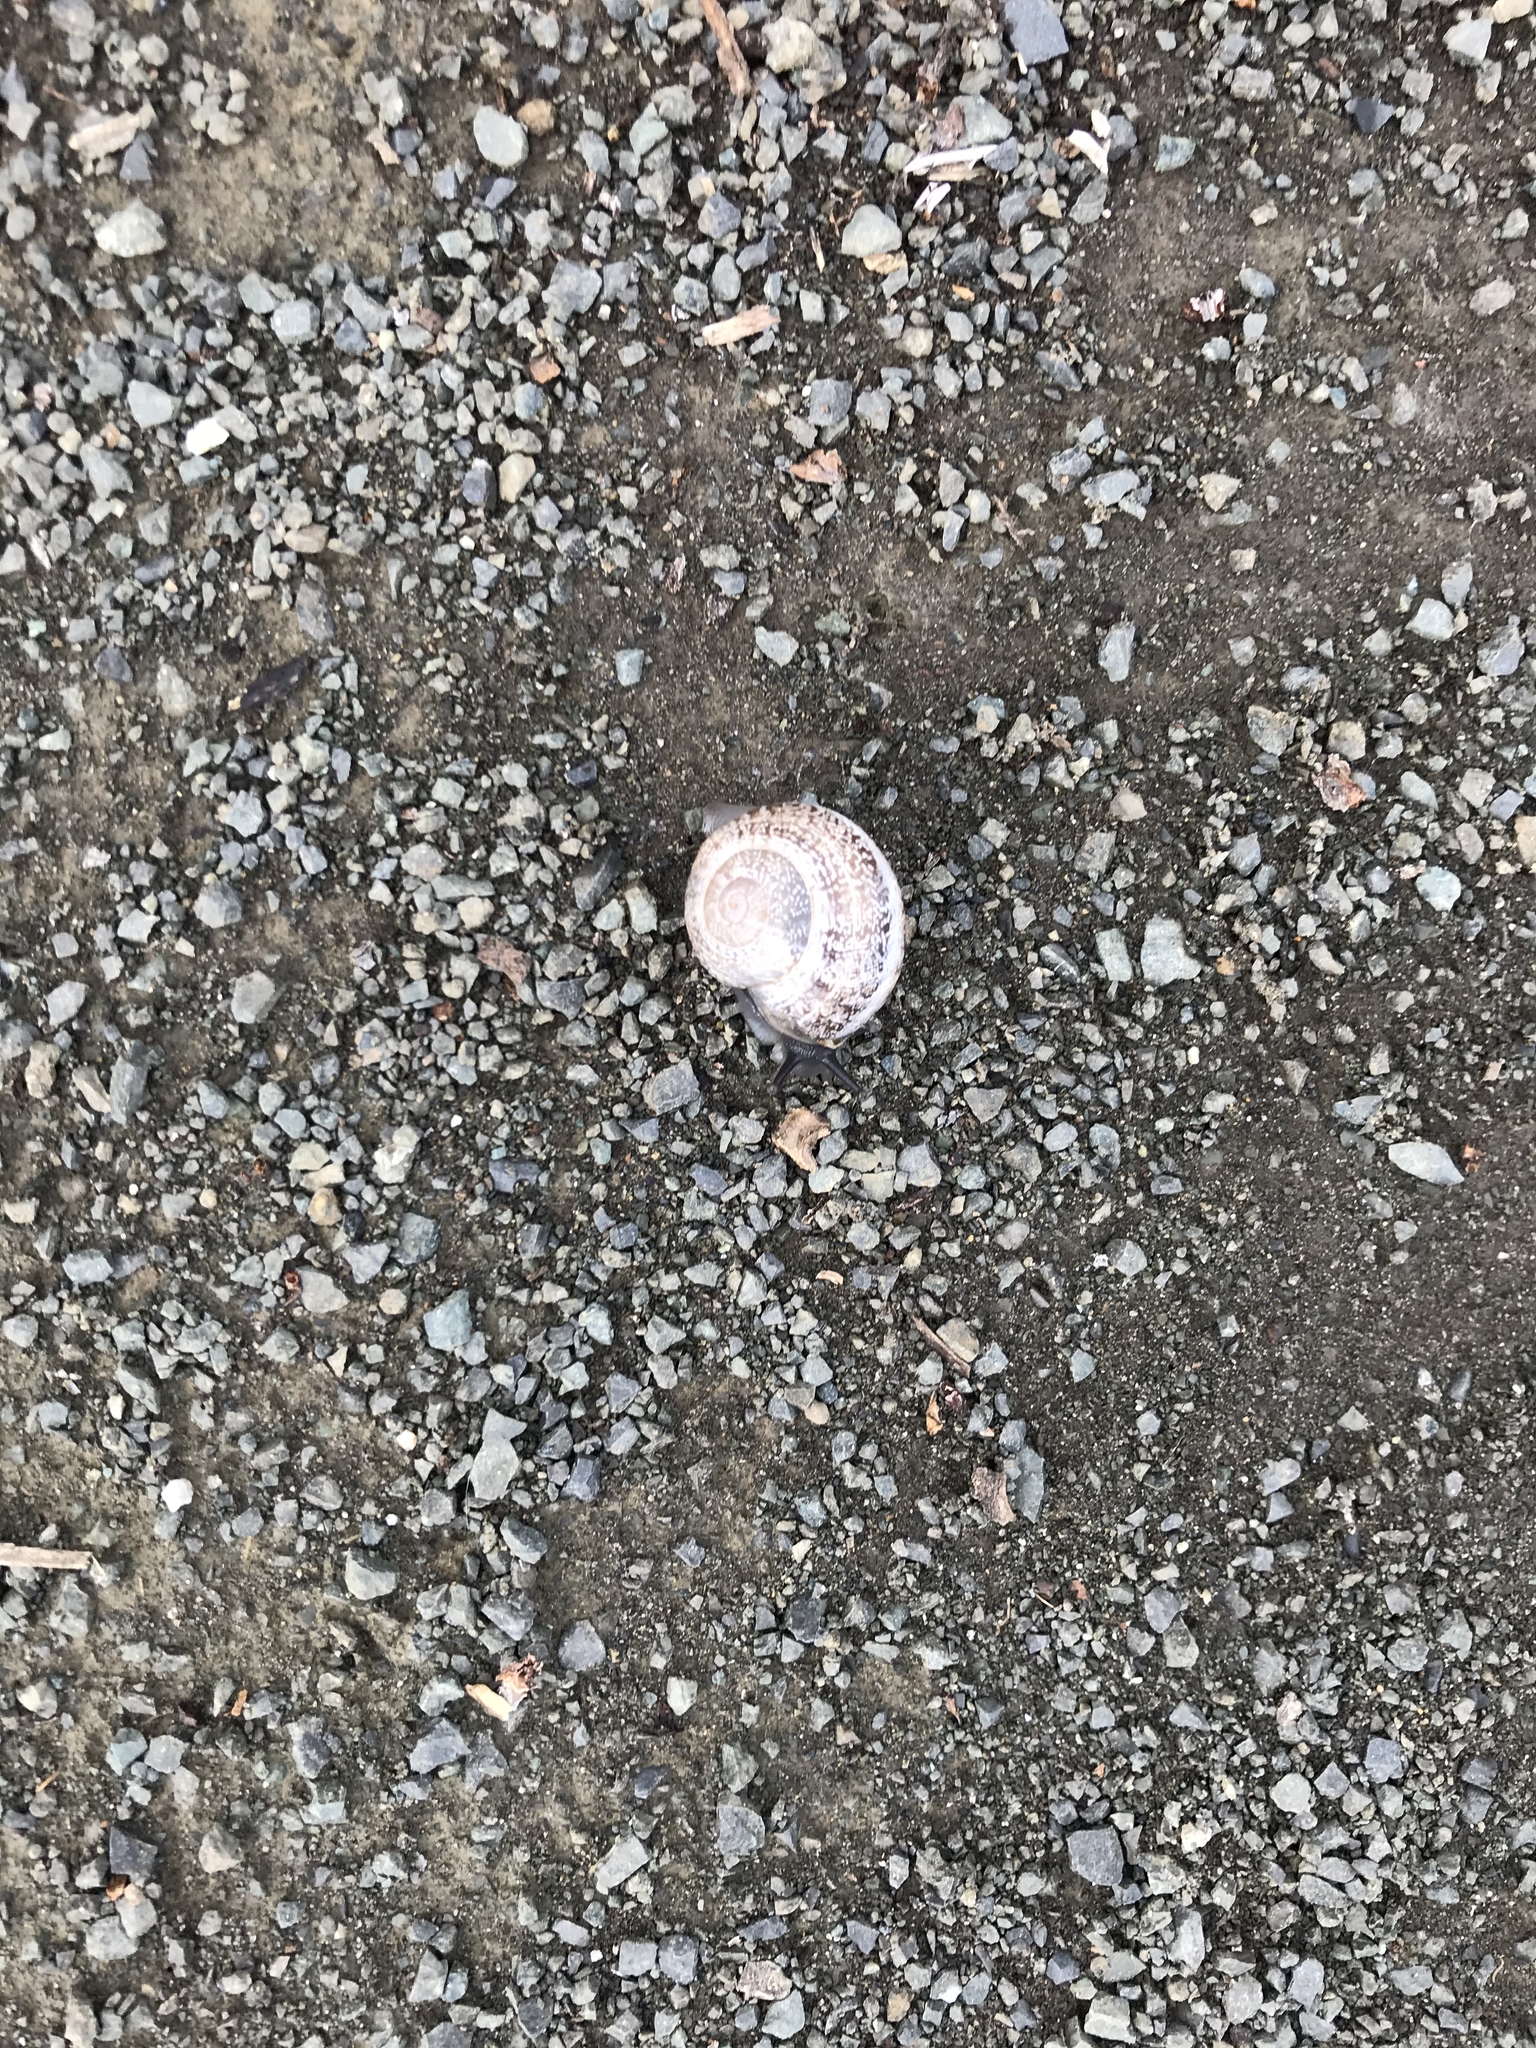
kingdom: Animalia
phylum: Mollusca
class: Gastropoda
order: Stylommatophora
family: Helicidae
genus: Otala
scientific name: Otala lactea
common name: Milk snail
